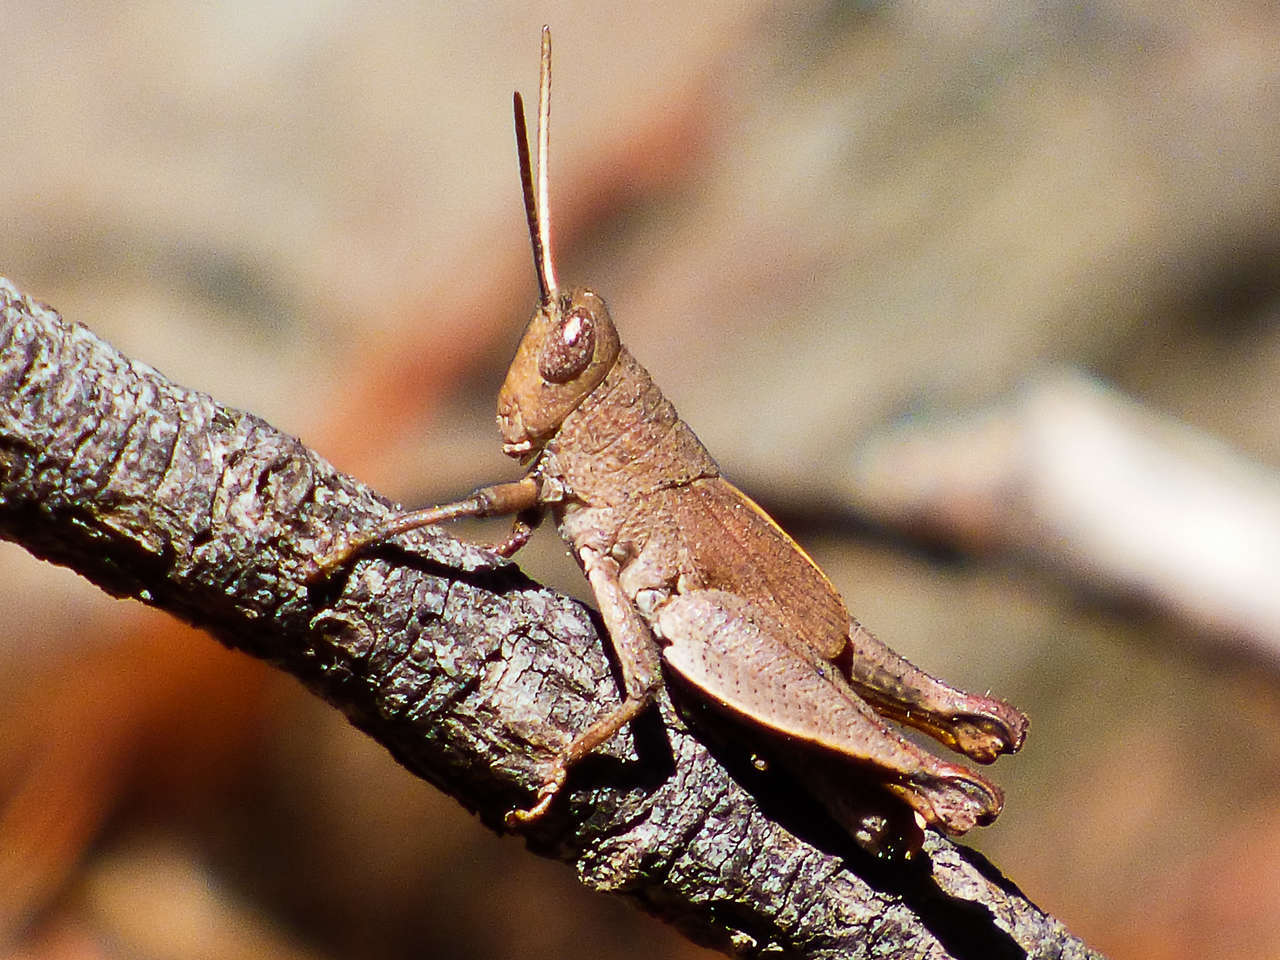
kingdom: Animalia
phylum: Arthropoda
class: Insecta
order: Orthoptera
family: Acrididae
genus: Rhitzala
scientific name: Rhitzala modesta
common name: Short-winged heath grasshopper
